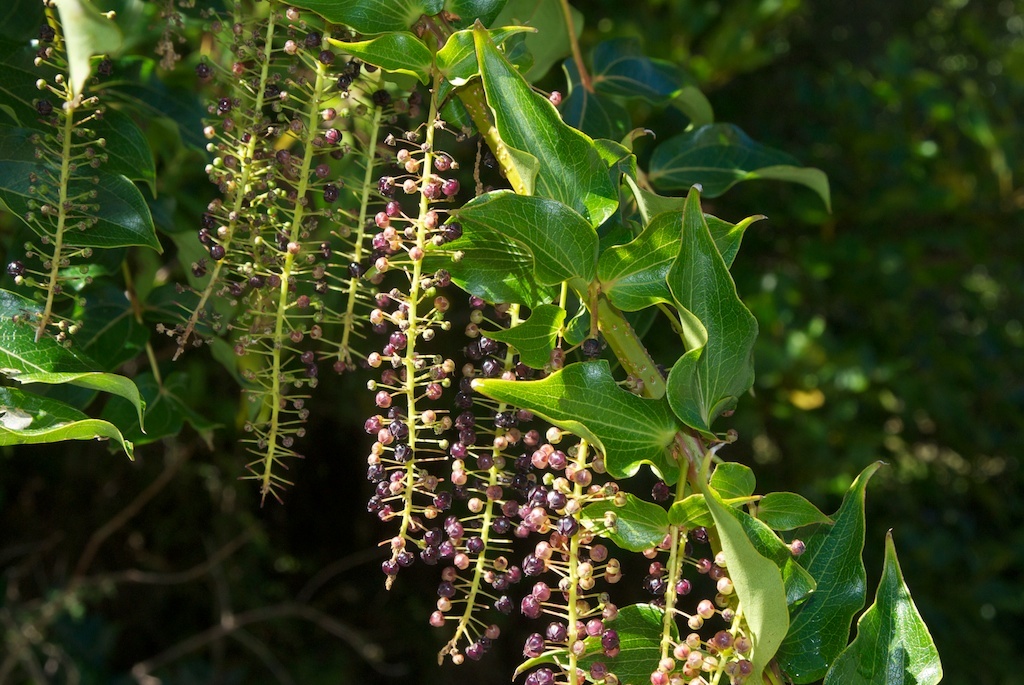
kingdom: Plantae
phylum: Tracheophyta
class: Magnoliopsida
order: Cucurbitales
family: Coriariaceae
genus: Coriaria
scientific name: Coriaria arborea
